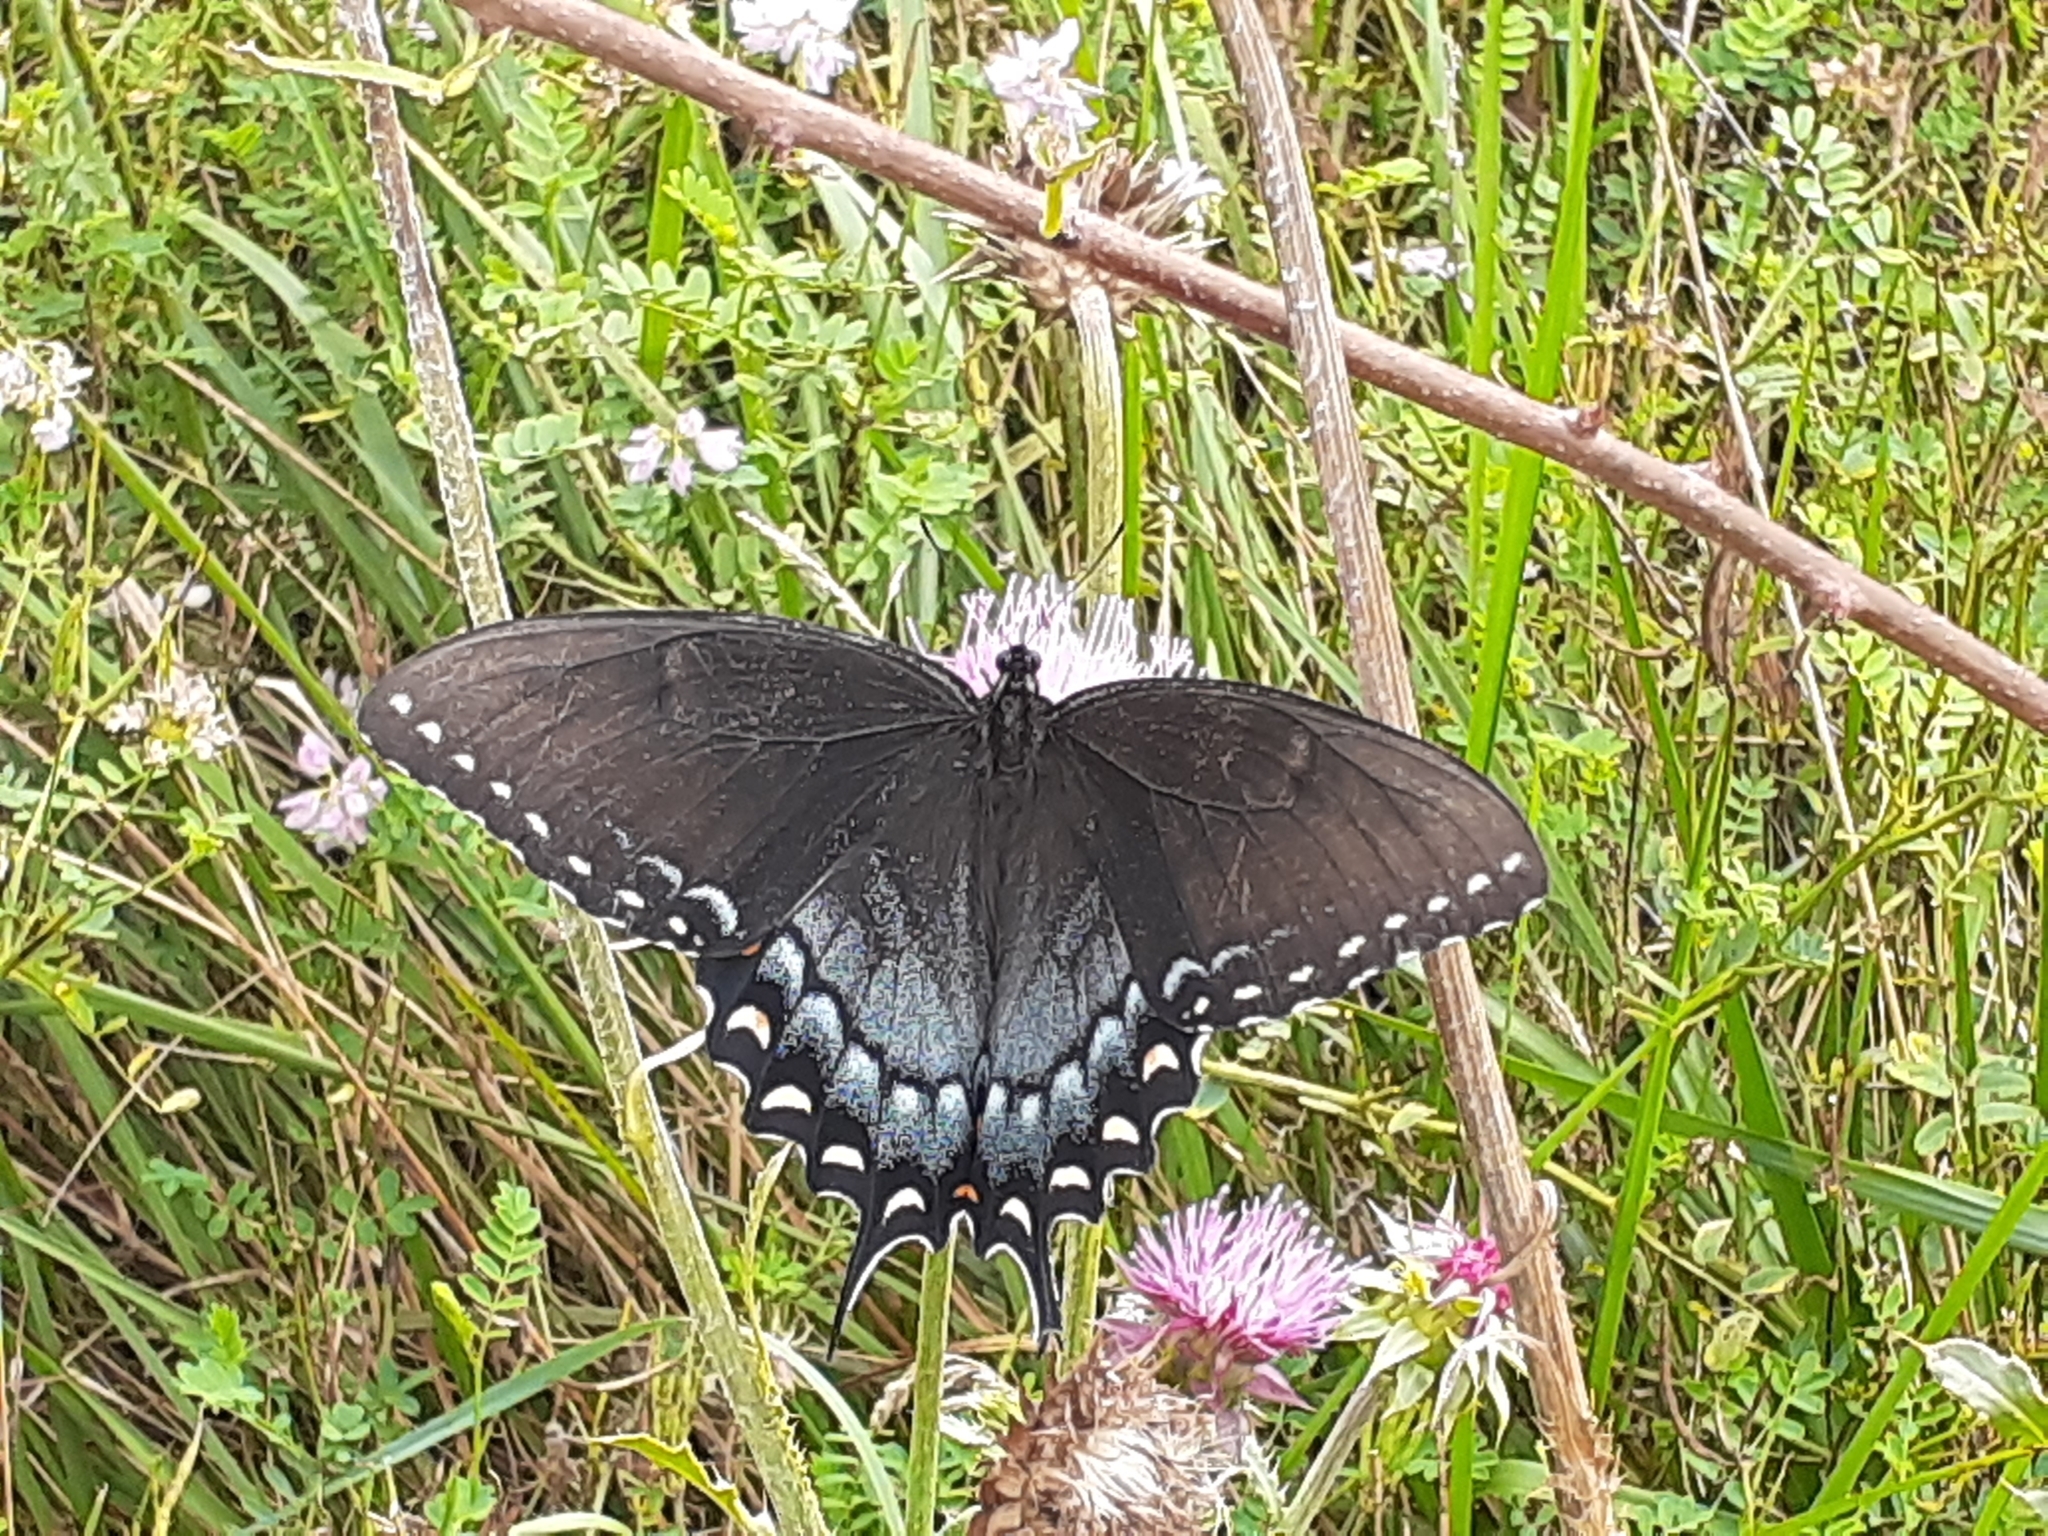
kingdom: Animalia
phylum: Arthropoda
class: Insecta
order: Lepidoptera
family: Papilionidae
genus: Papilio
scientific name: Papilio glaucus
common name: Tiger swallowtail
